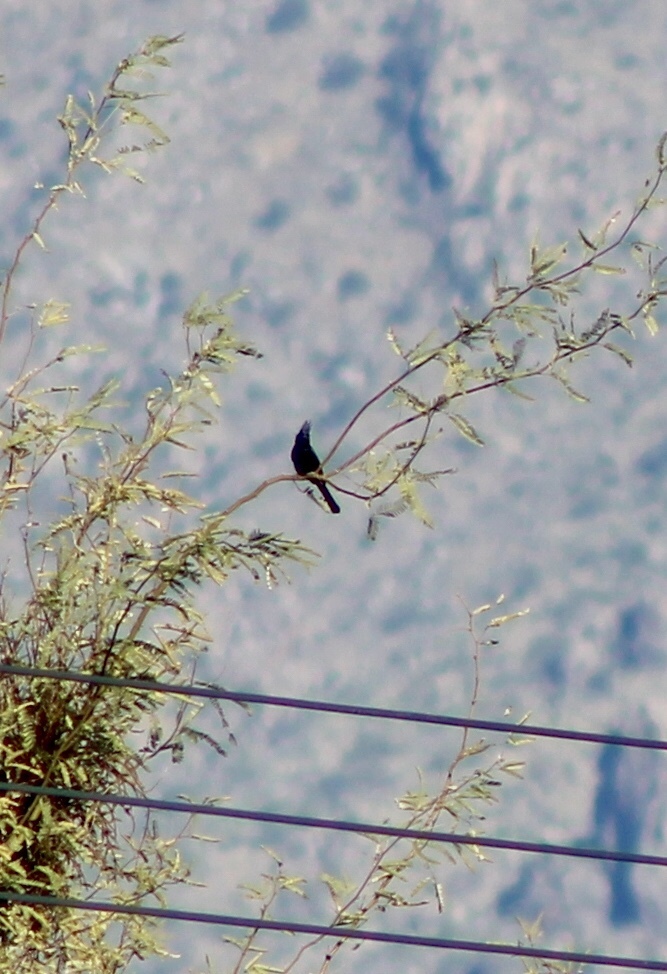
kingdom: Animalia
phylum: Chordata
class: Aves
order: Passeriformes
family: Ptilogonatidae
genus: Phainopepla
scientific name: Phainopepla nitens
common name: Phainopepla
